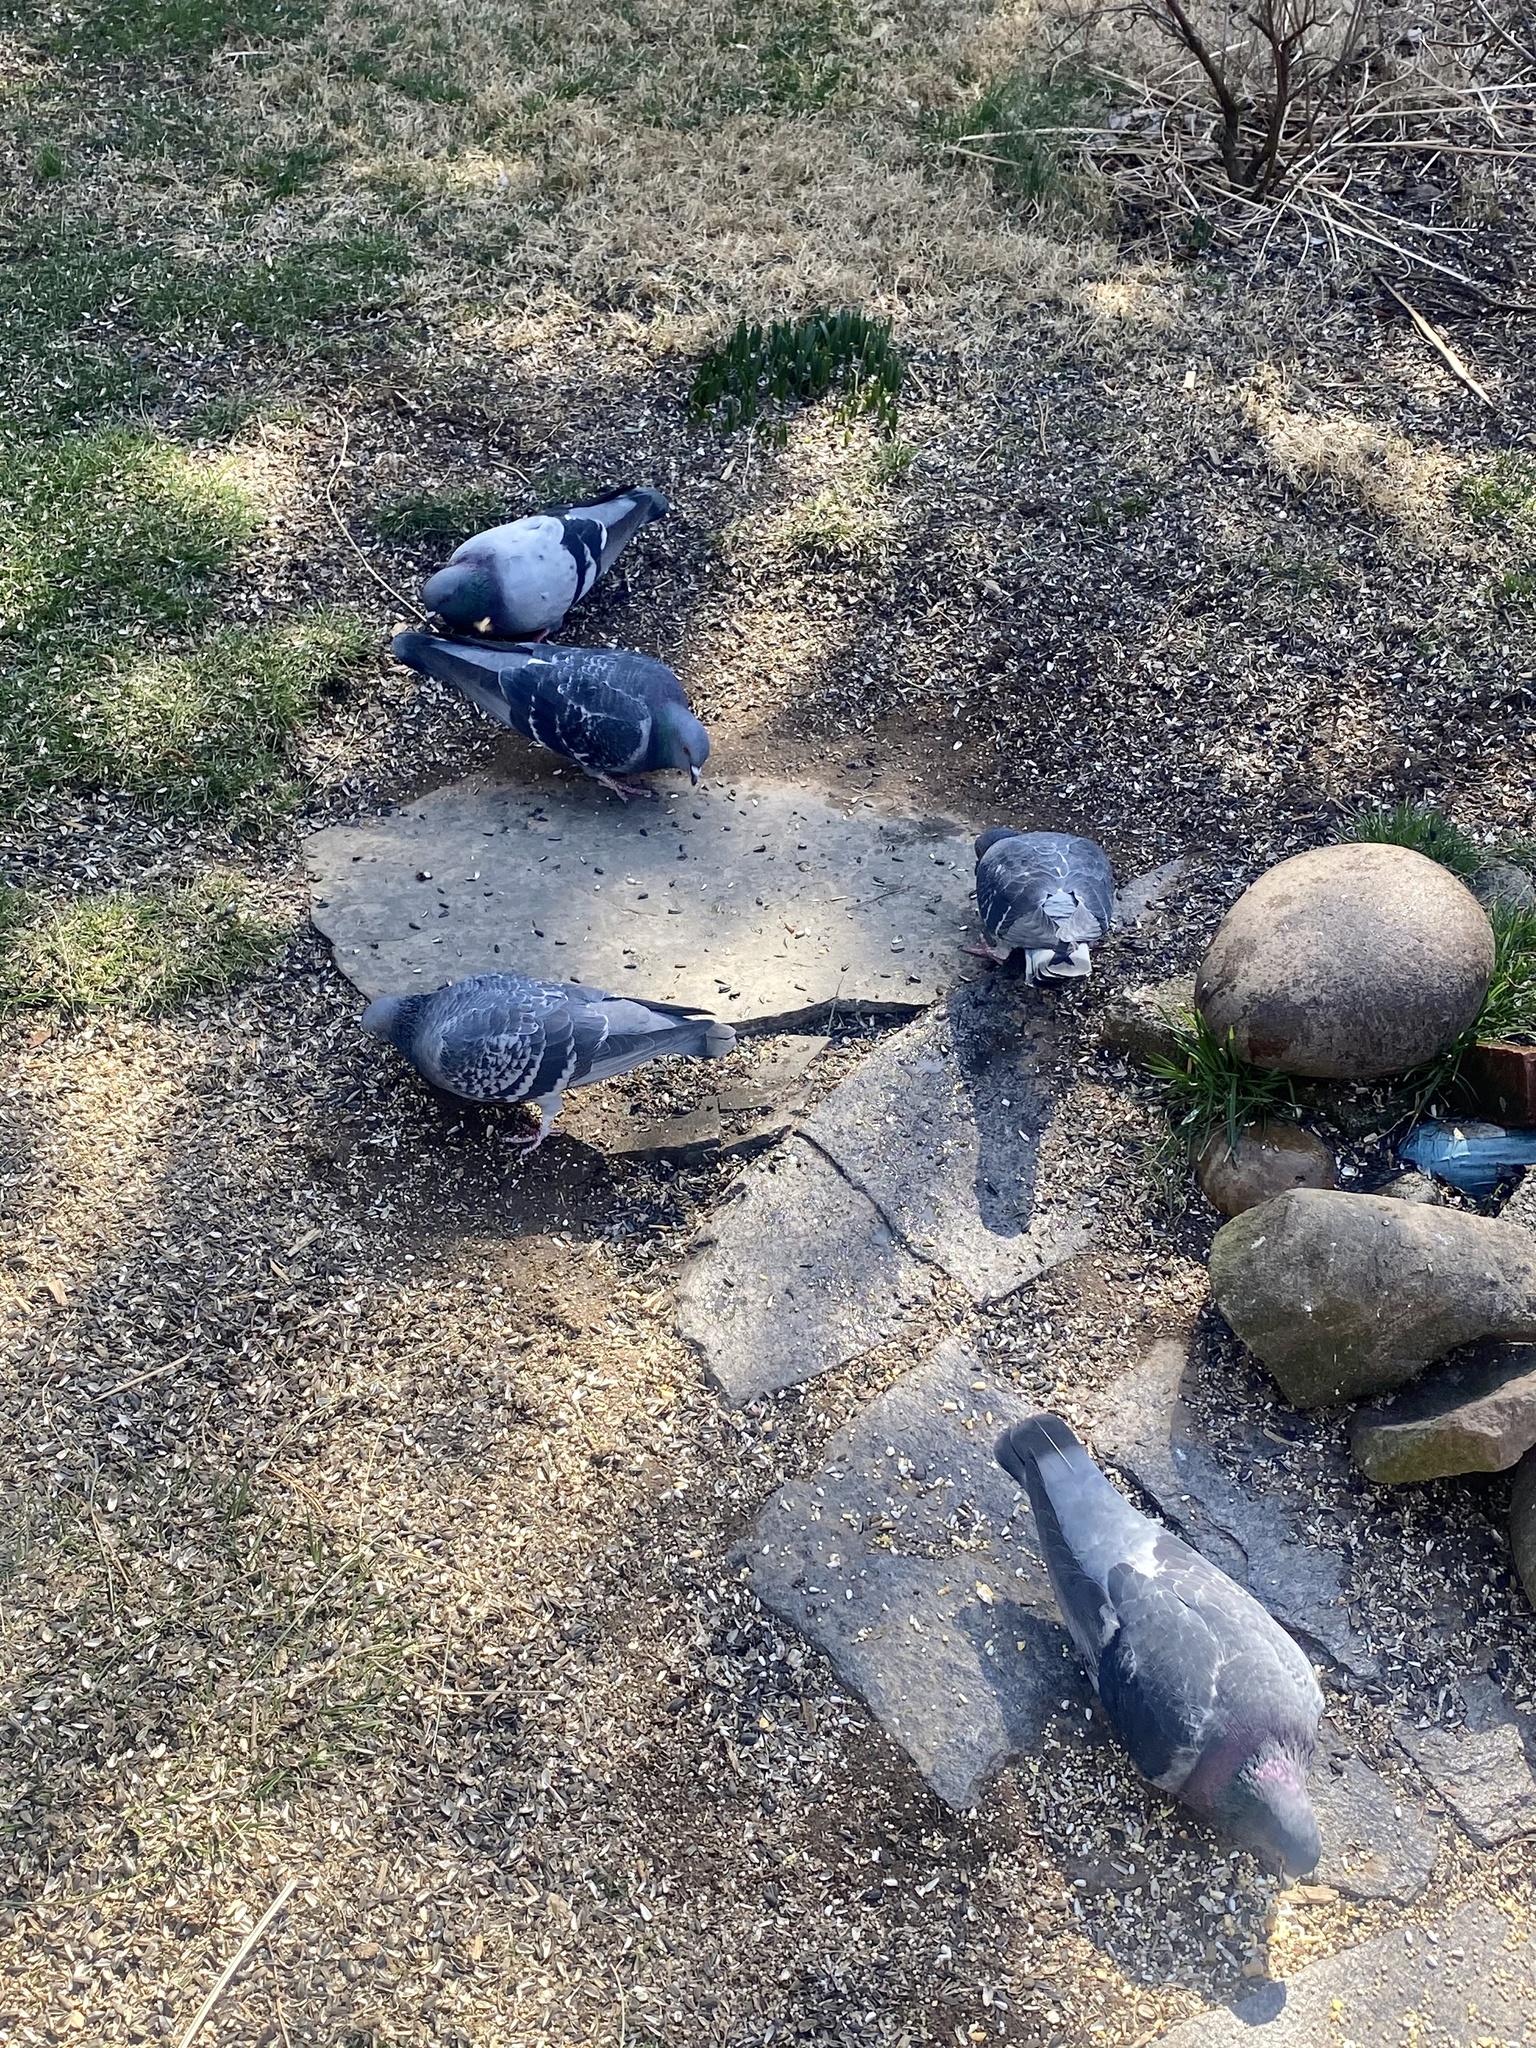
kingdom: Animalia
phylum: Chordata
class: Aves
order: Columbiformes
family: Columbidae
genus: Columba
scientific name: Columba livia
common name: Rock pigeon
